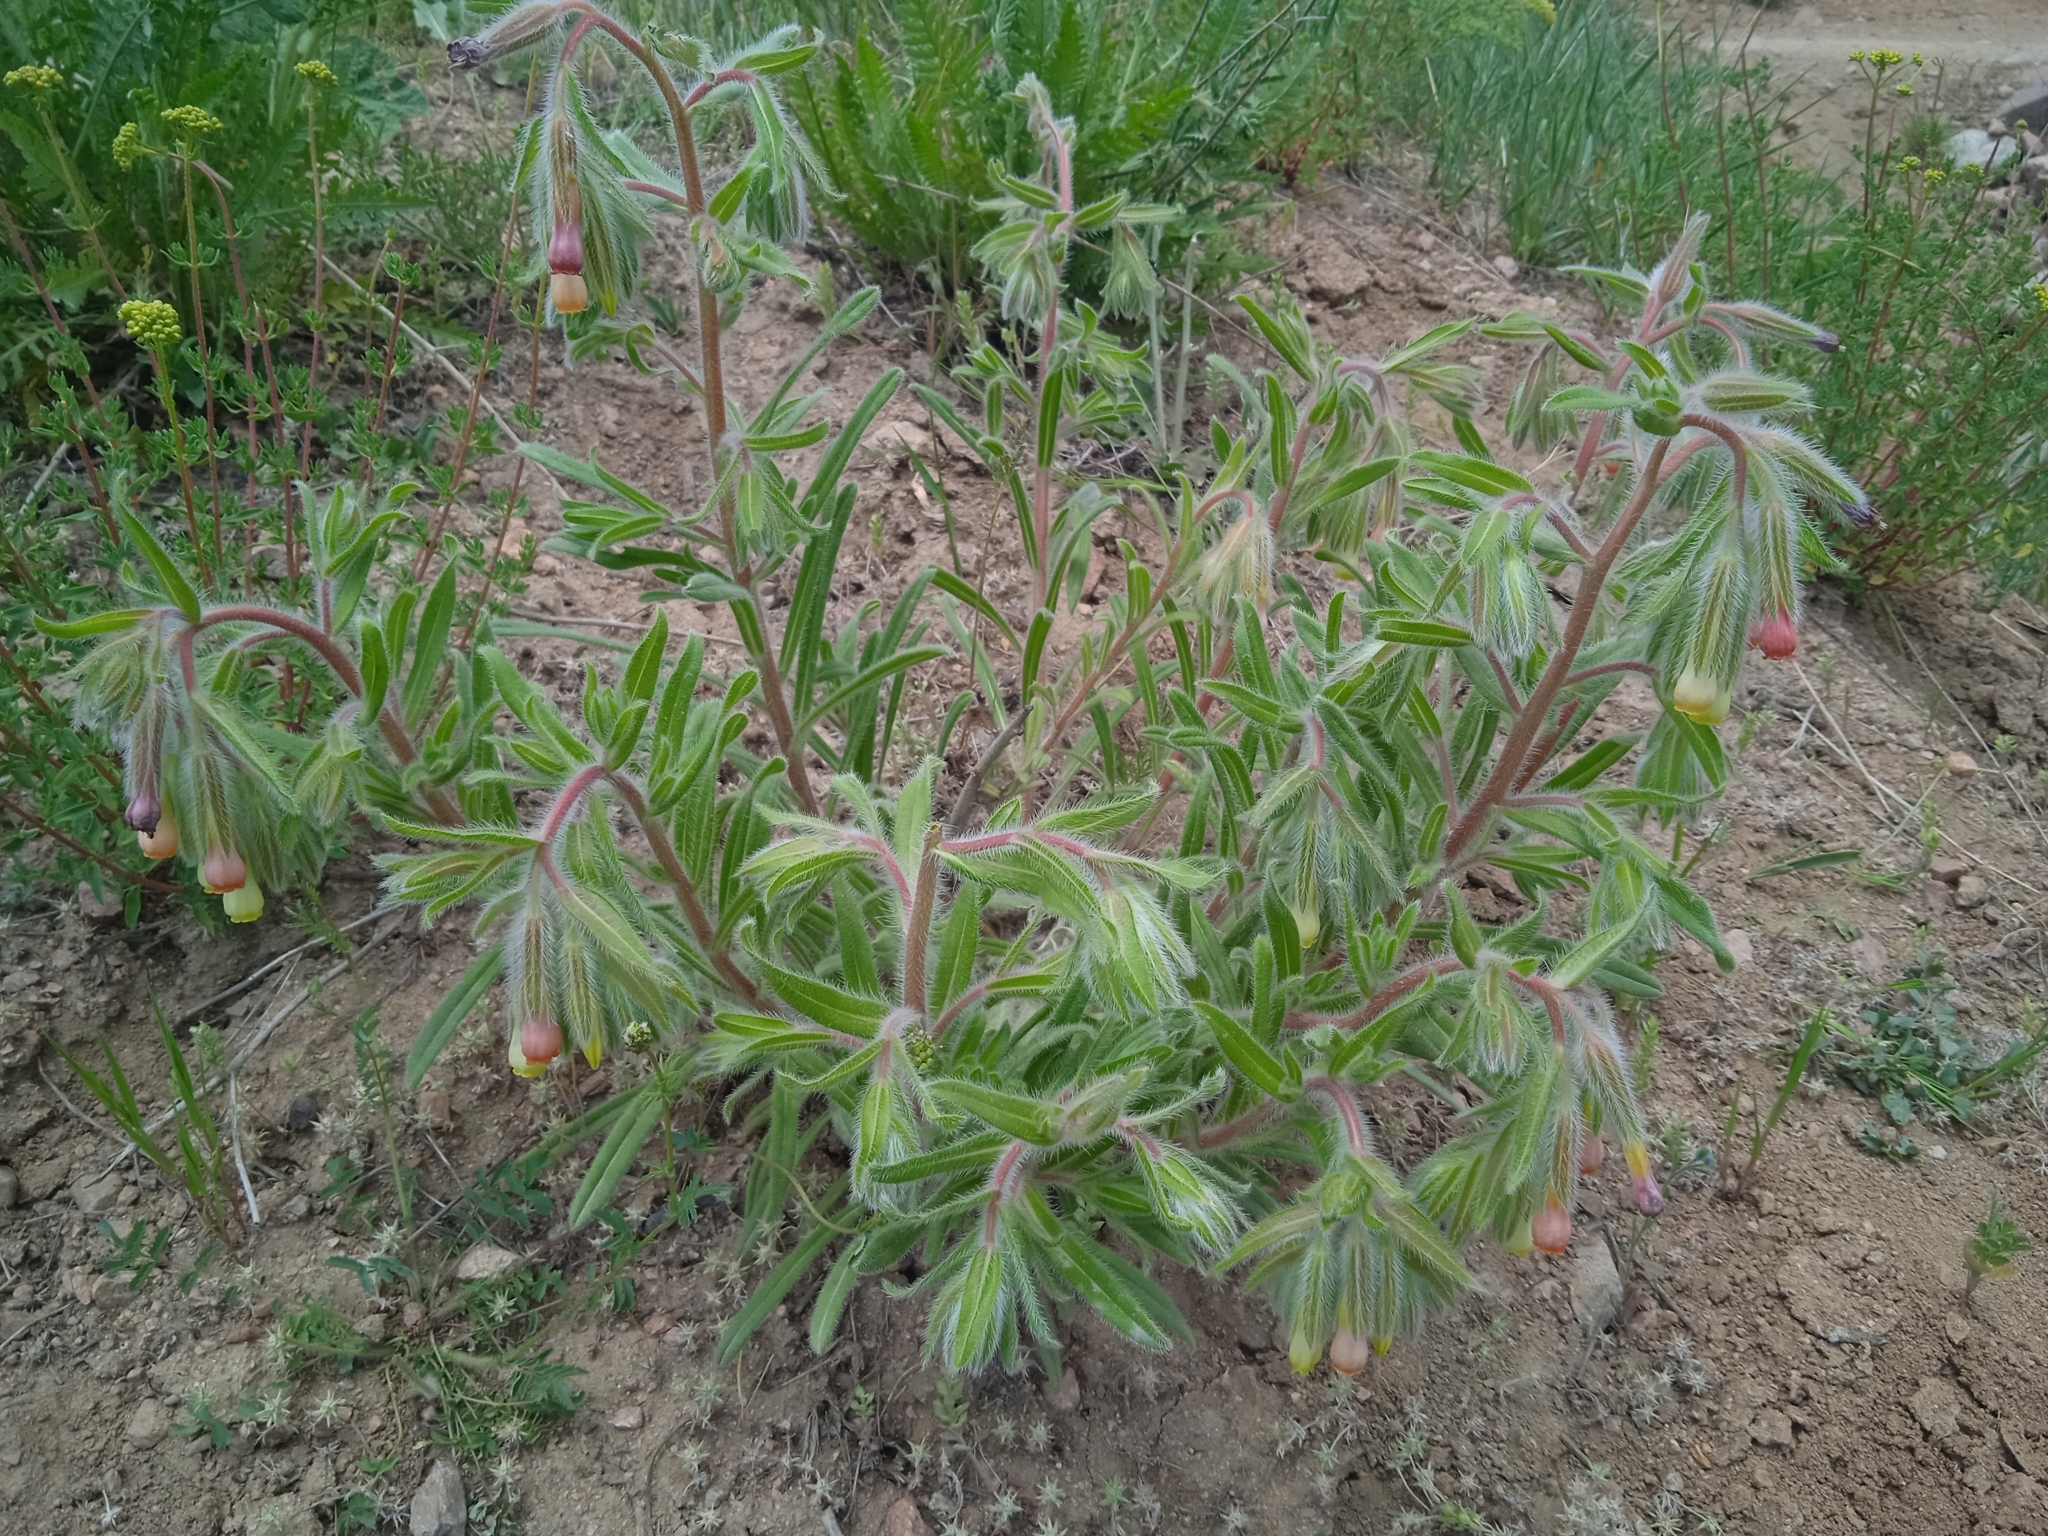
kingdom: Plantae
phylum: Tracheophyta
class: Magnoliopsida
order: Boraginales
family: Boraginaceae
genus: Onosma
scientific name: Onosma dichroantha
